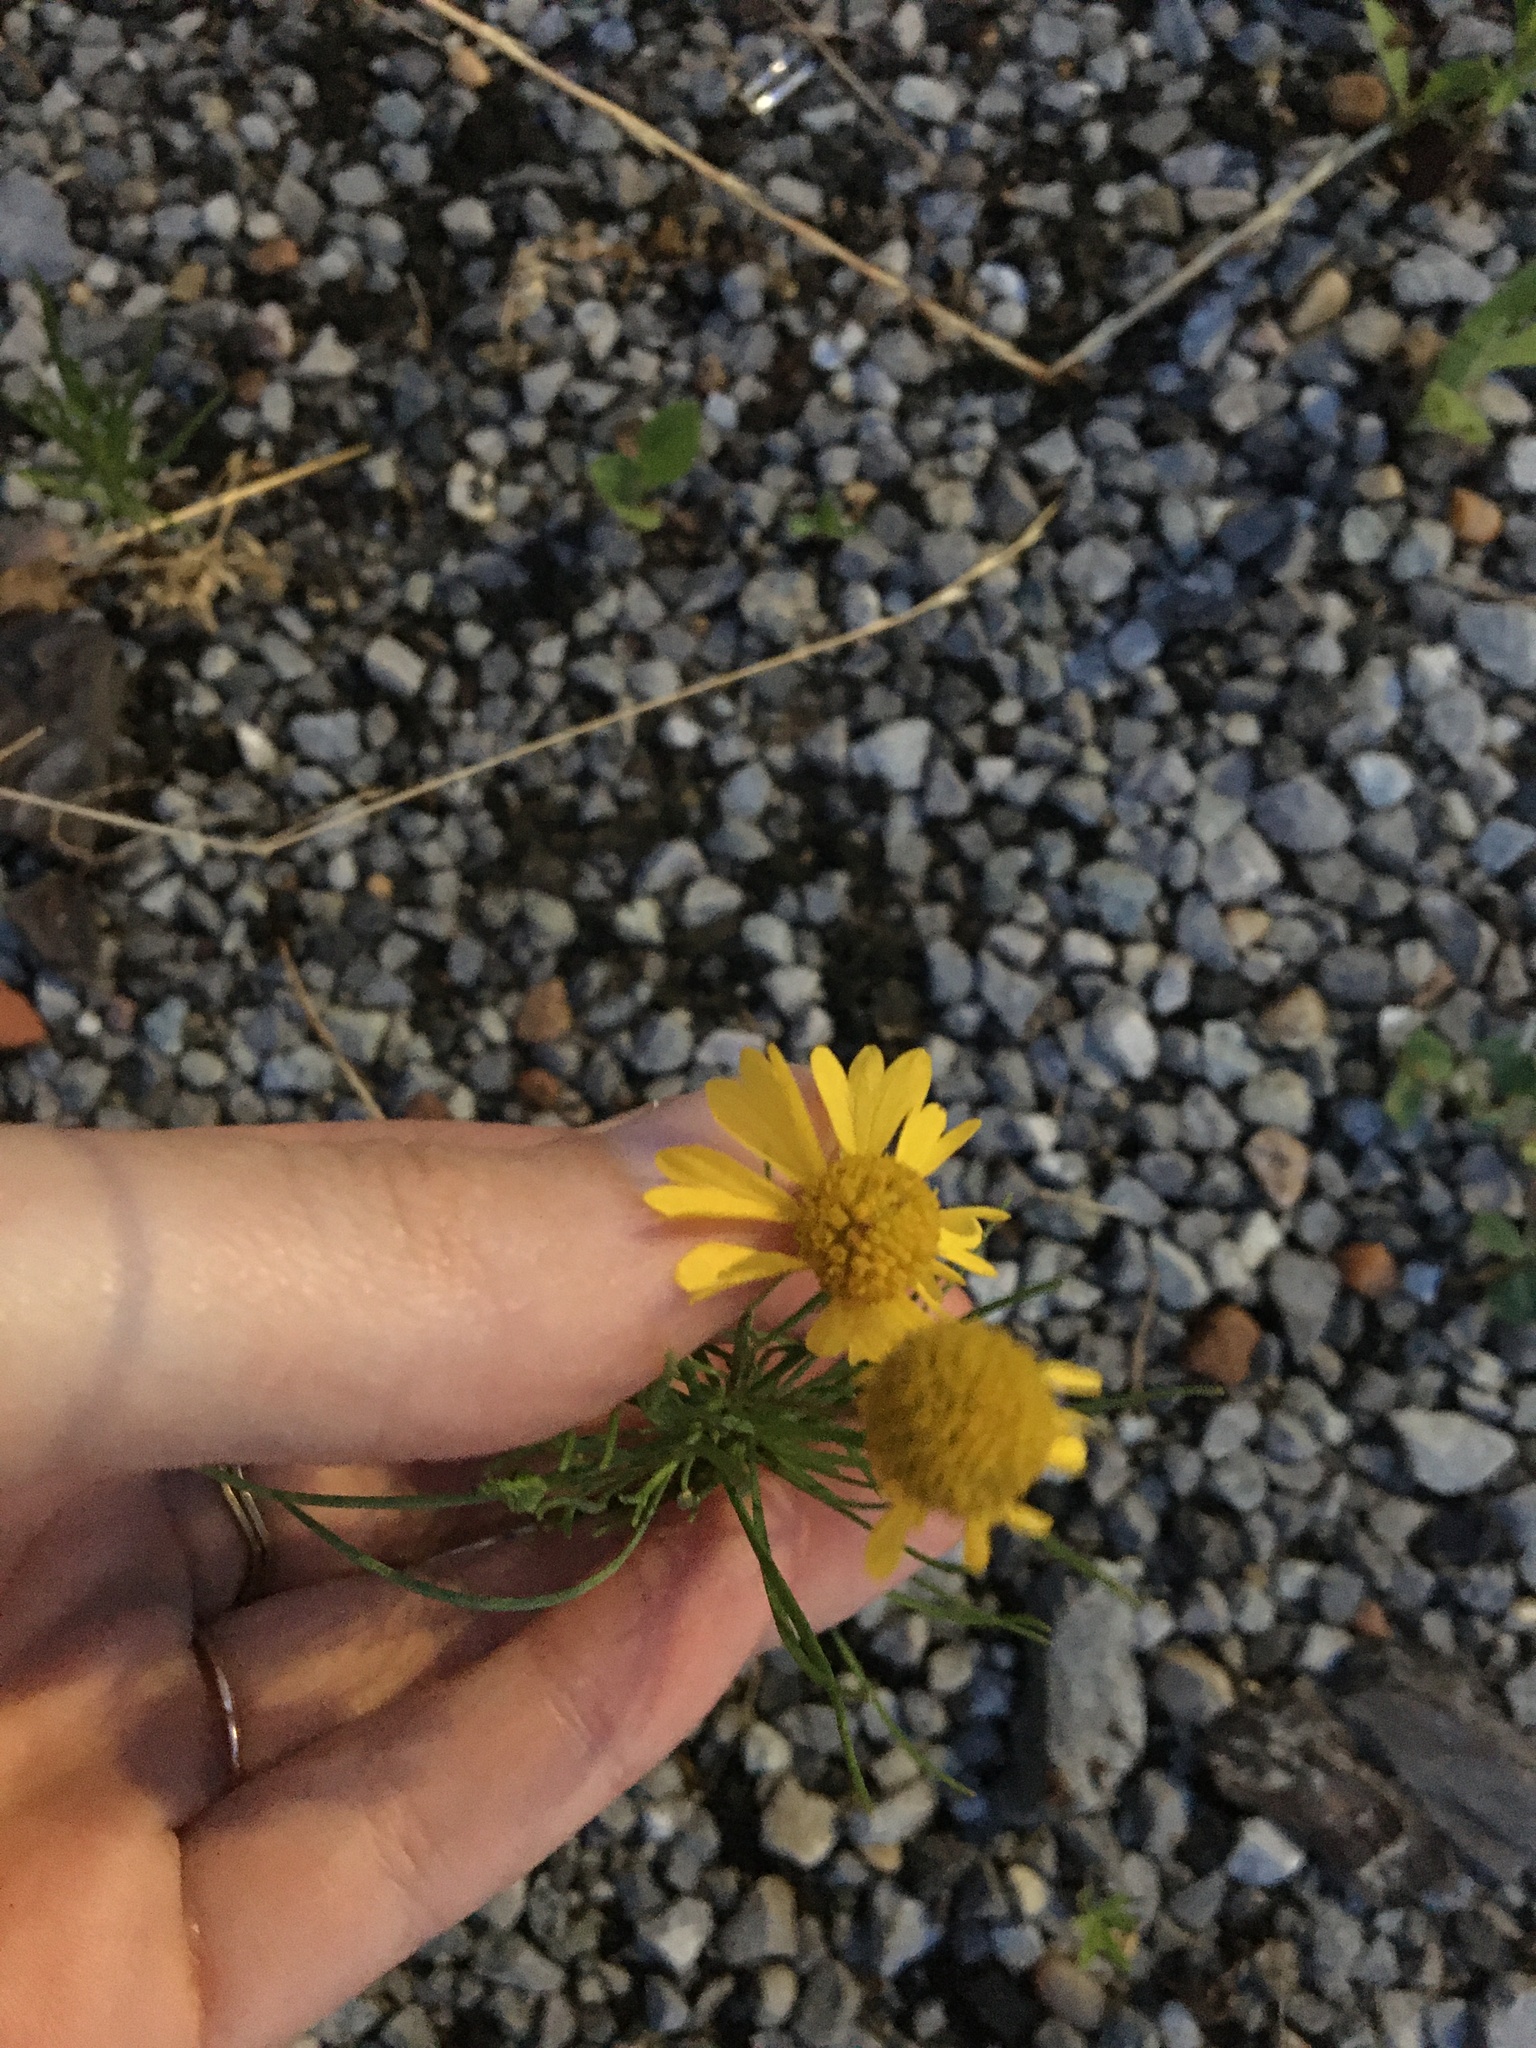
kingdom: Plantae
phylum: Tracheophyta
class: Magnoliopsida
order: Asterales
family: Asteraceae
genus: Helenium
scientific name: Helenium amarum
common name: Bitter sneezeweed
